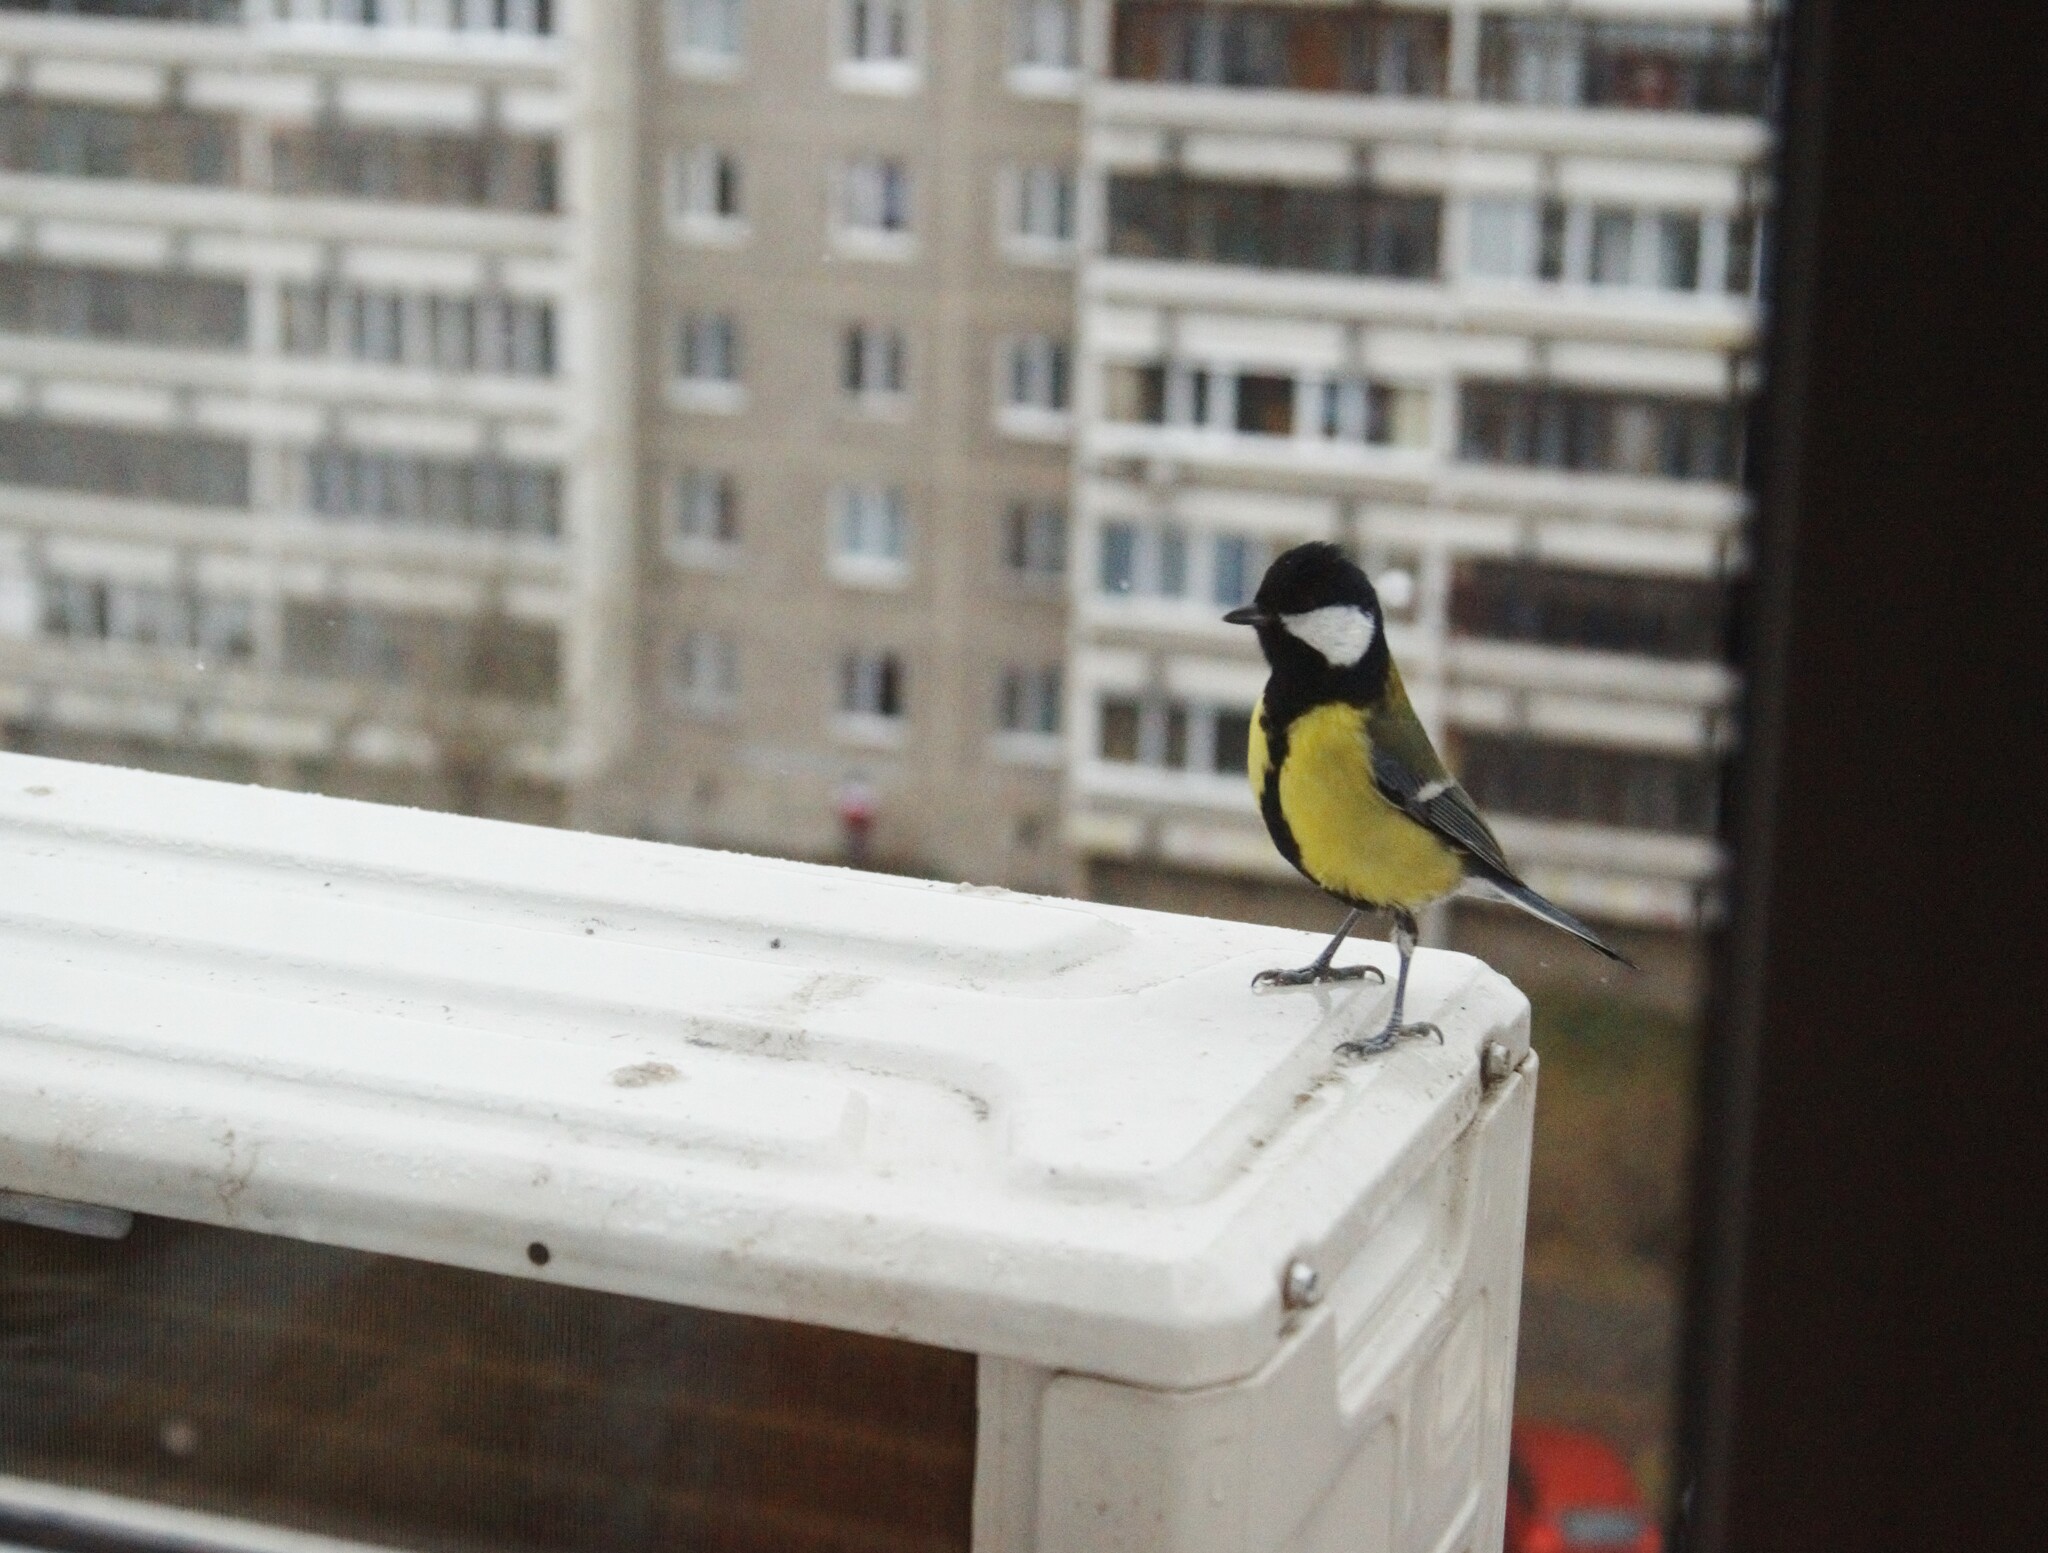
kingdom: Animalia
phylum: Chordata
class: Aves
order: Passeriformes
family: Paridae
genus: Parus
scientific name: Parus major
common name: Great tit
